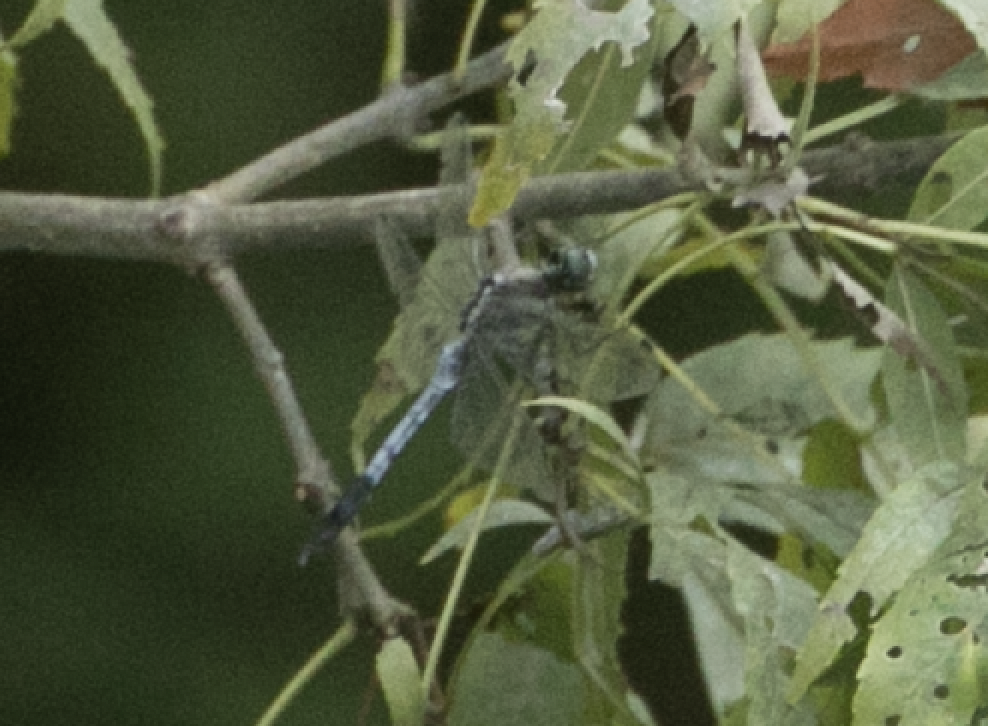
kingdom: Animalia
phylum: Arthropoda
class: Insecta
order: Odonata
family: Libellulidae
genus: Orthetrum
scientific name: Orthetrum albistylum
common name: White-tailed skimmer
